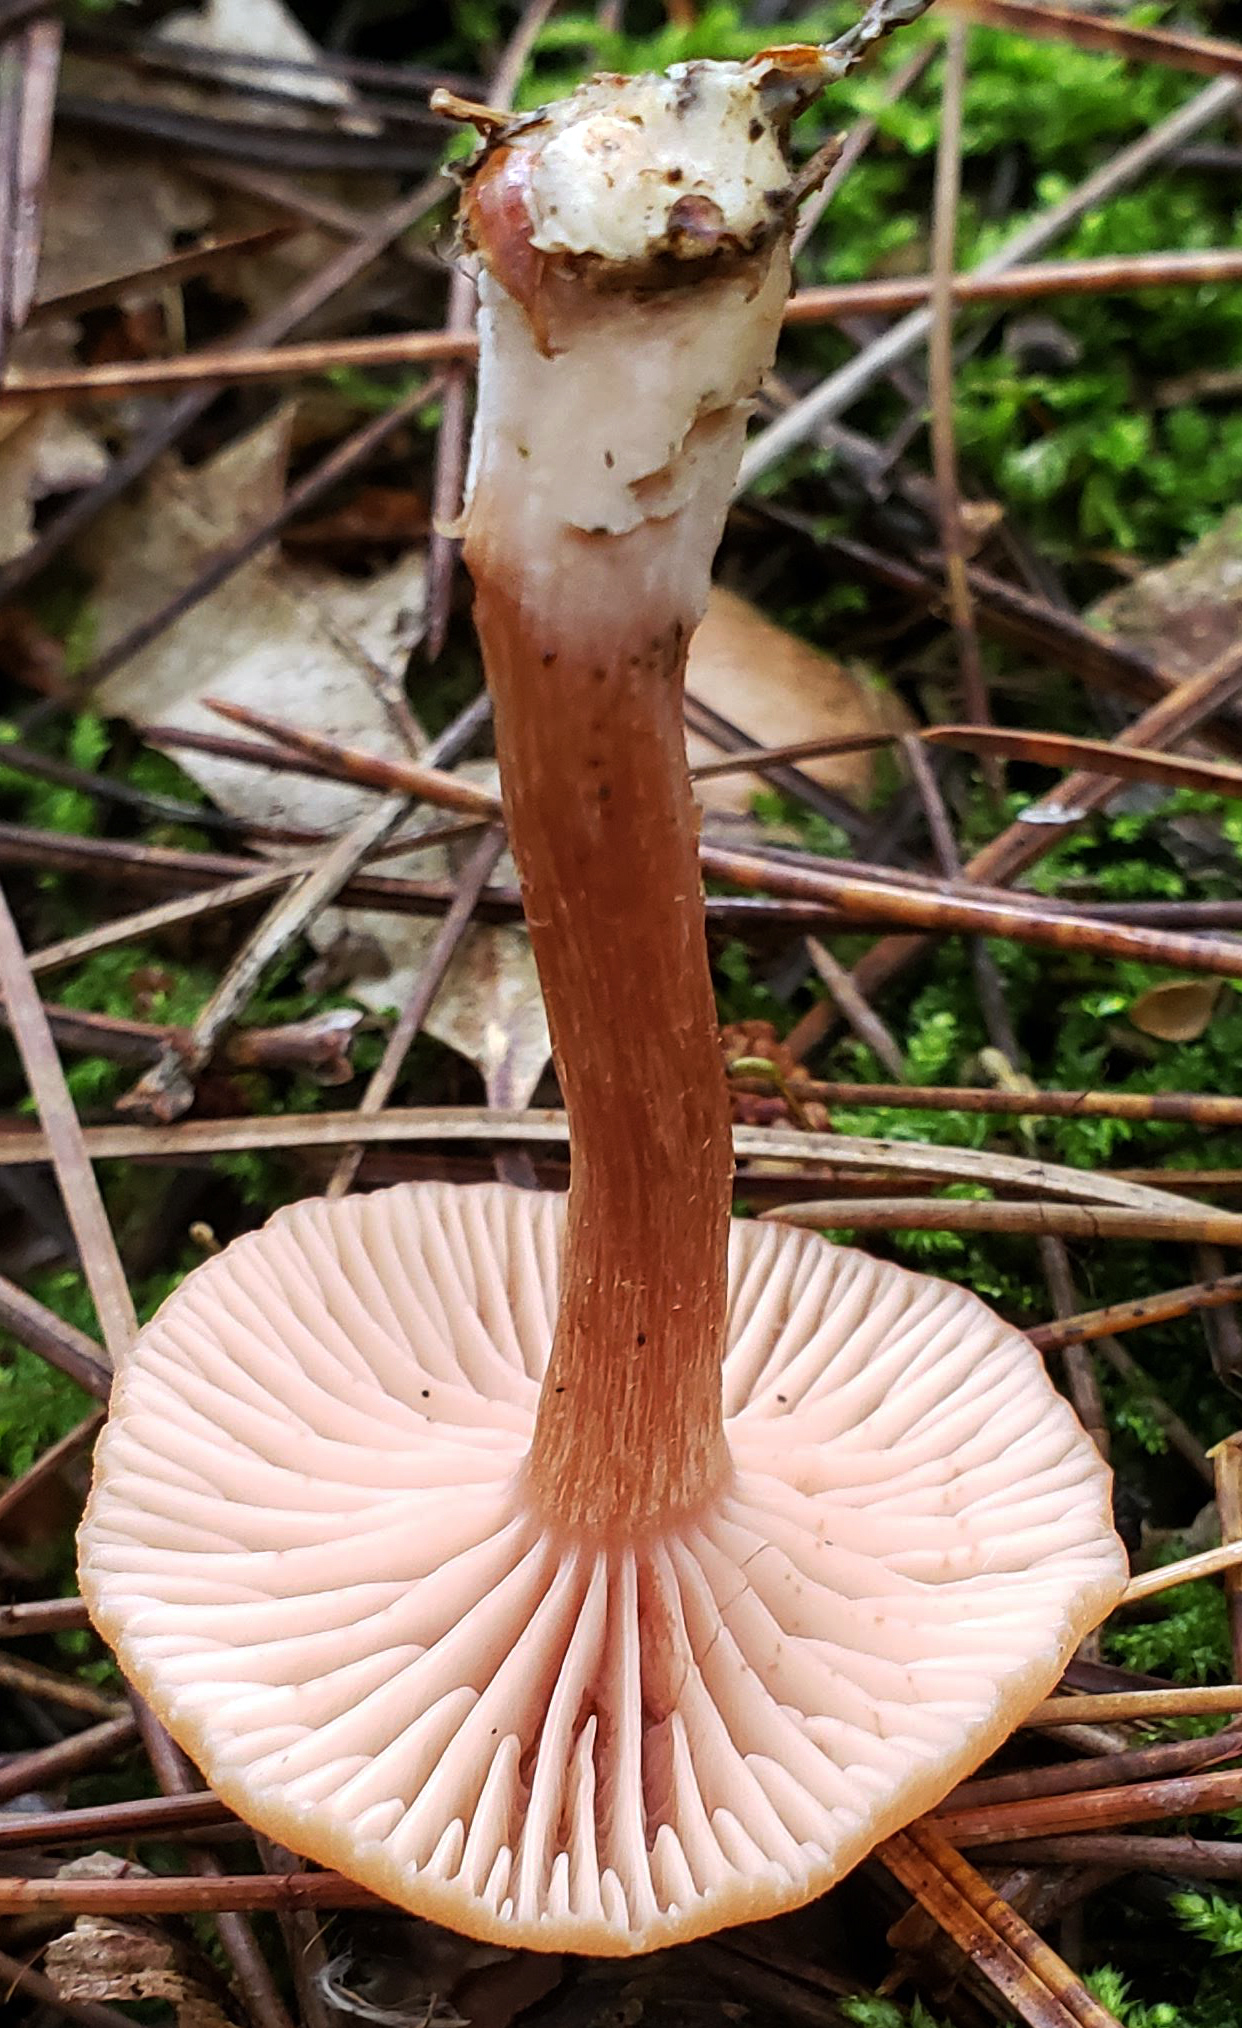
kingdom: Fungi
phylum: Basidiomycota
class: Agaricomycetes
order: Agaricales
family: Hydnangiaceae
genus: Laccaria
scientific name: Laccaria laccata
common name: Deceiver
